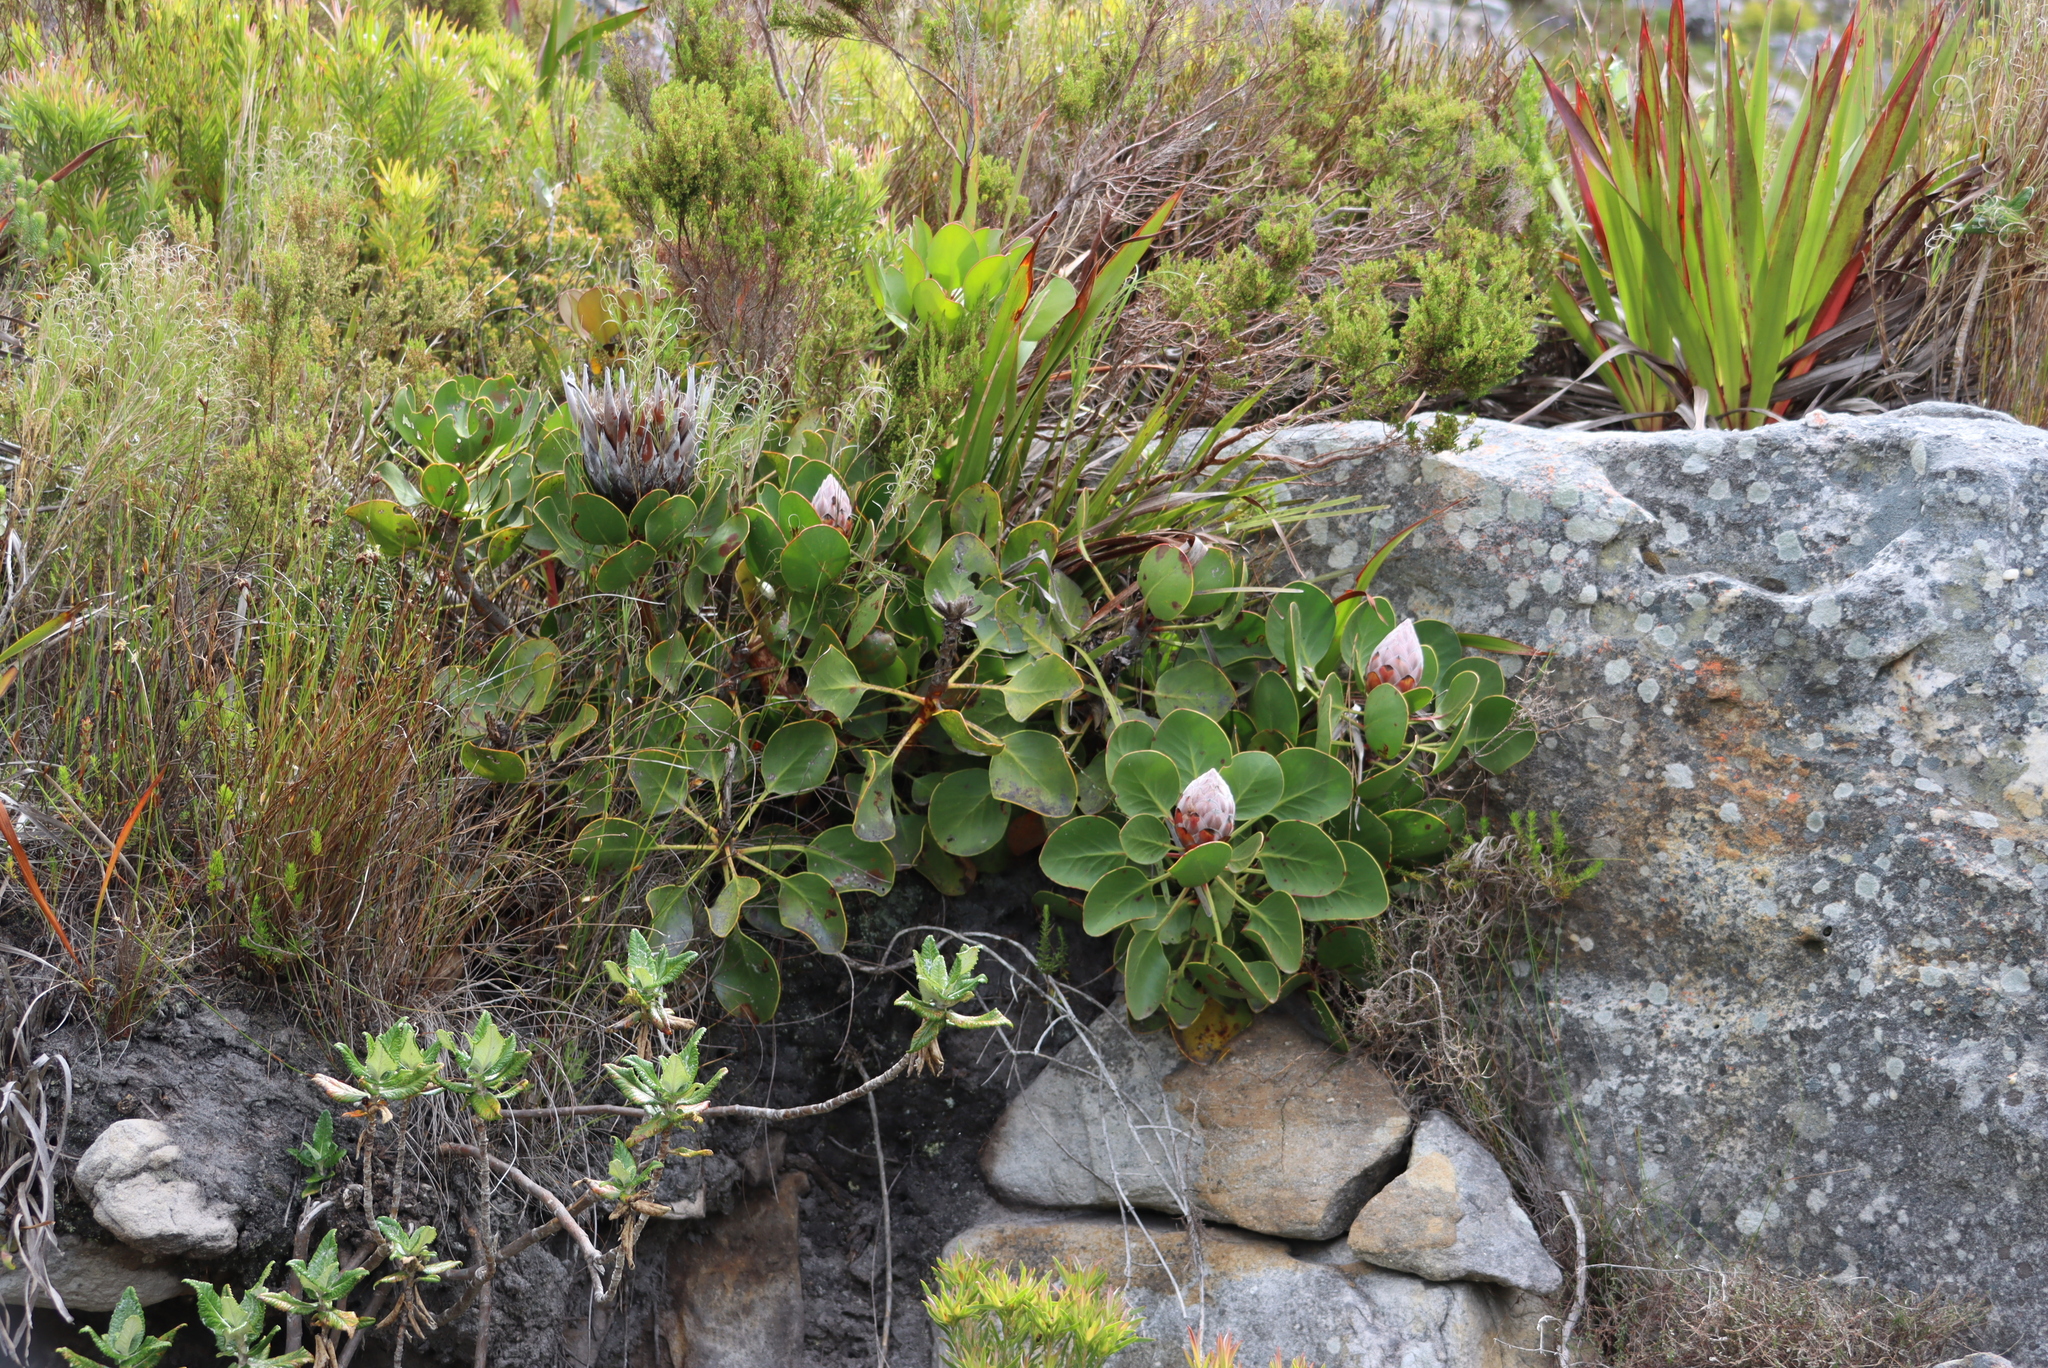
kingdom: Plantae
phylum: Tracheophyta
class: Magnoliopsida
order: Proteales
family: Proteaceae
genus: Protea
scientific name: Protea cynaroides
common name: King protea
